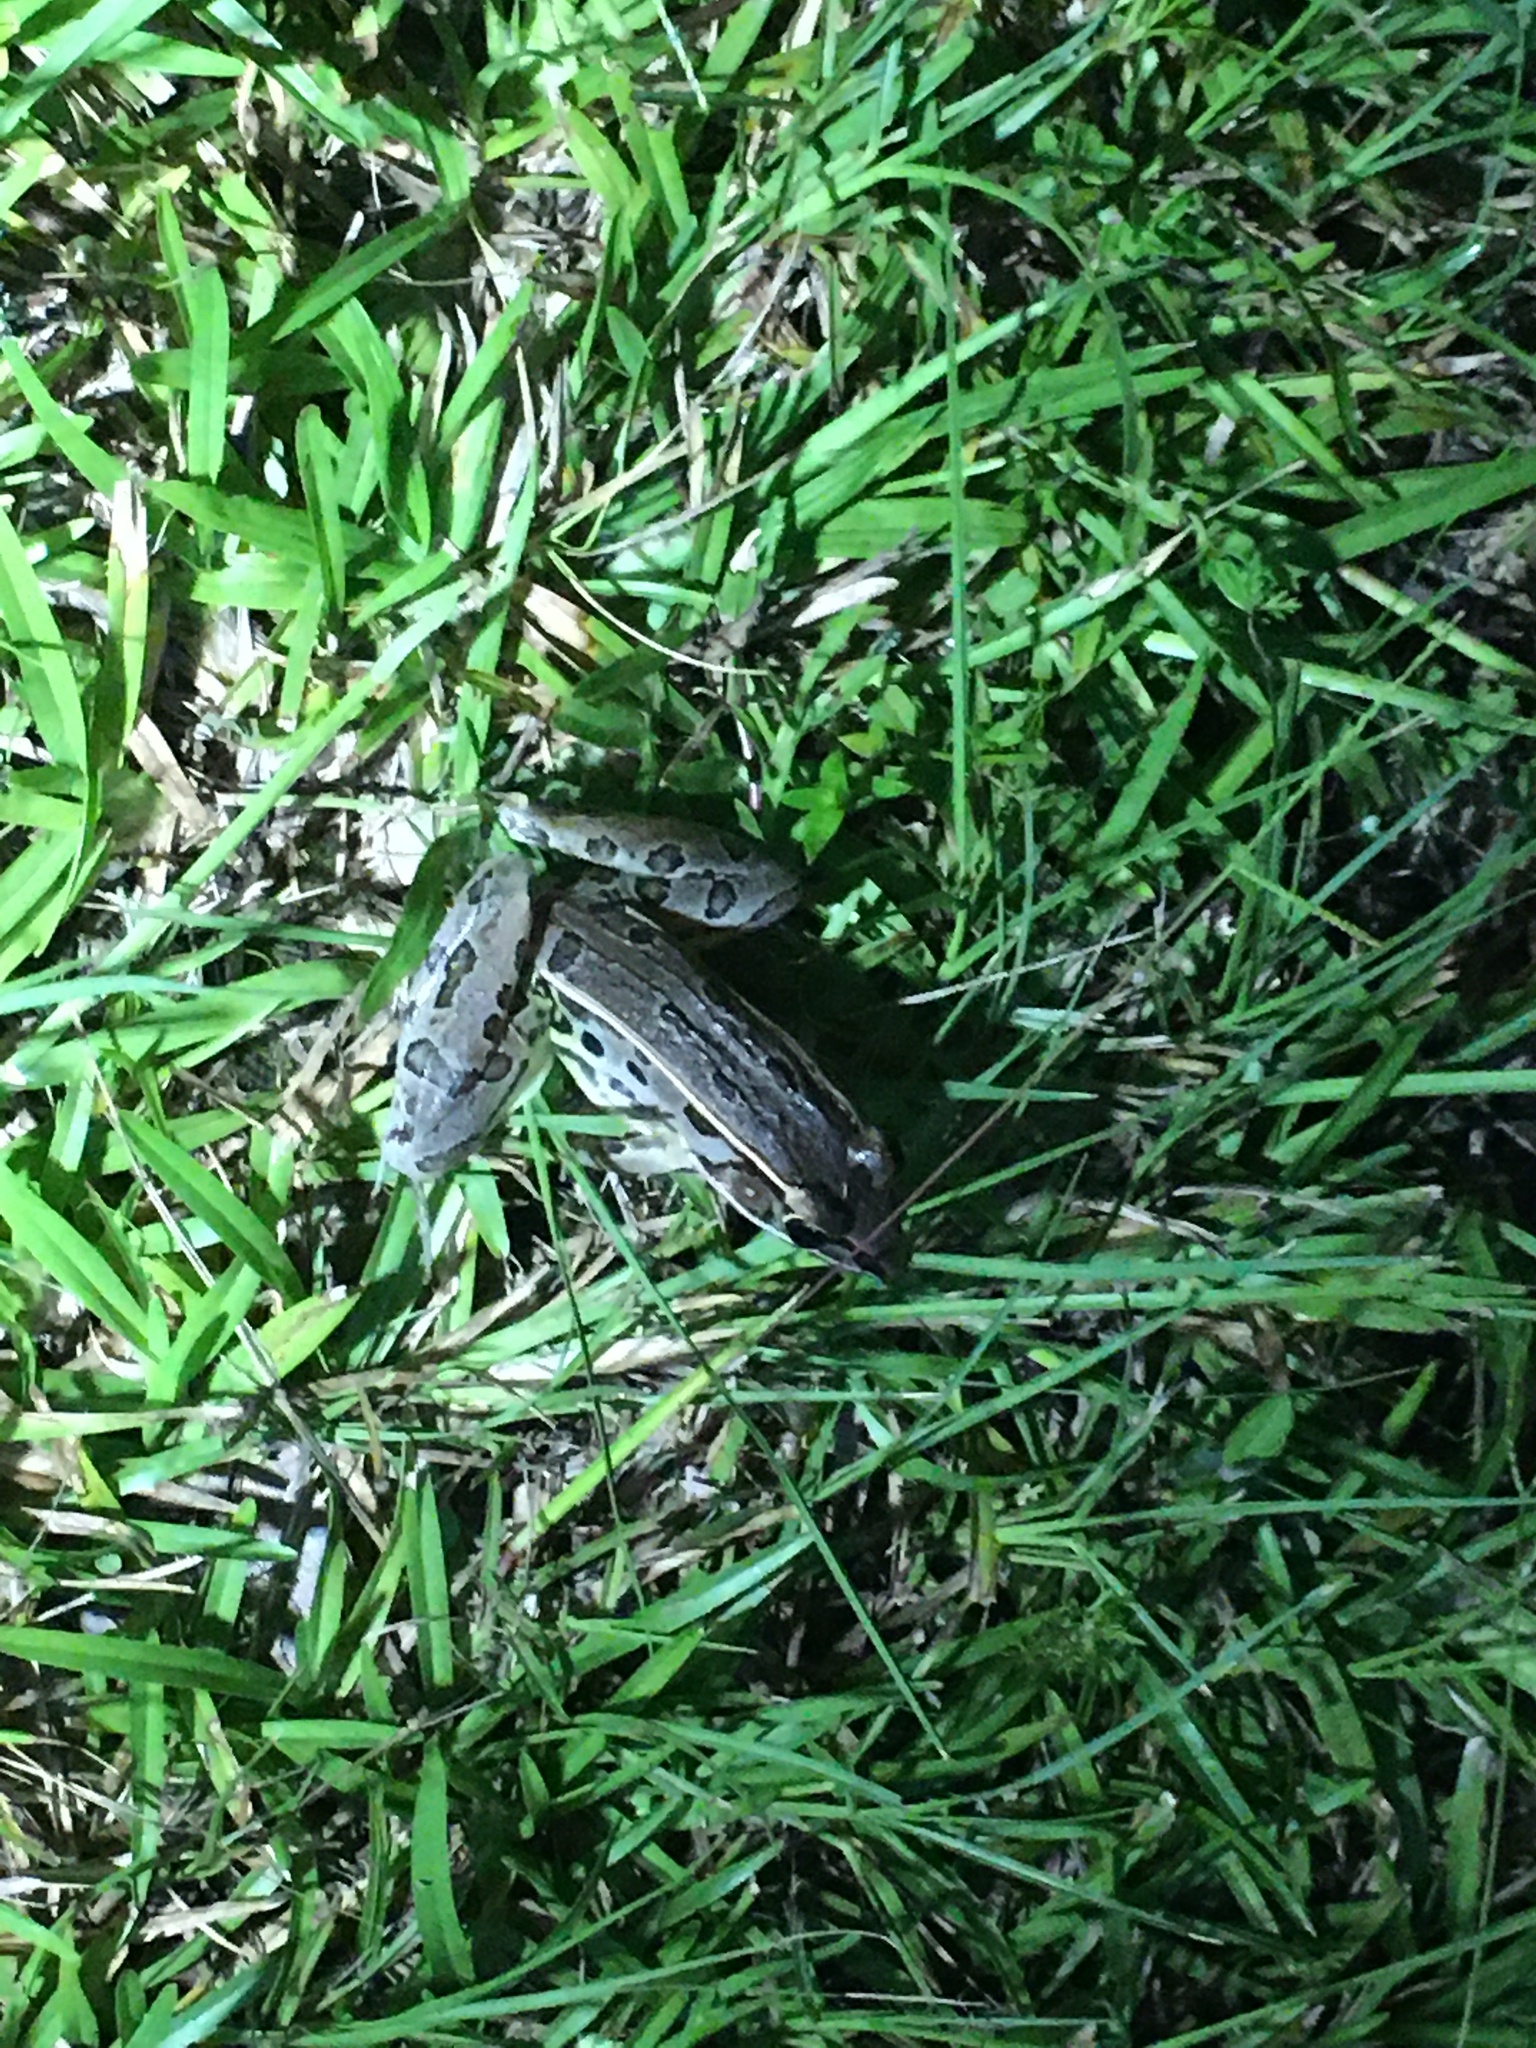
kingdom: Animalia
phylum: Chordata
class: Amphibia
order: Anura
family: Ranidae
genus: Lithobates
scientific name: Lithobates sphenocephalus
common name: Southern leopard frog
